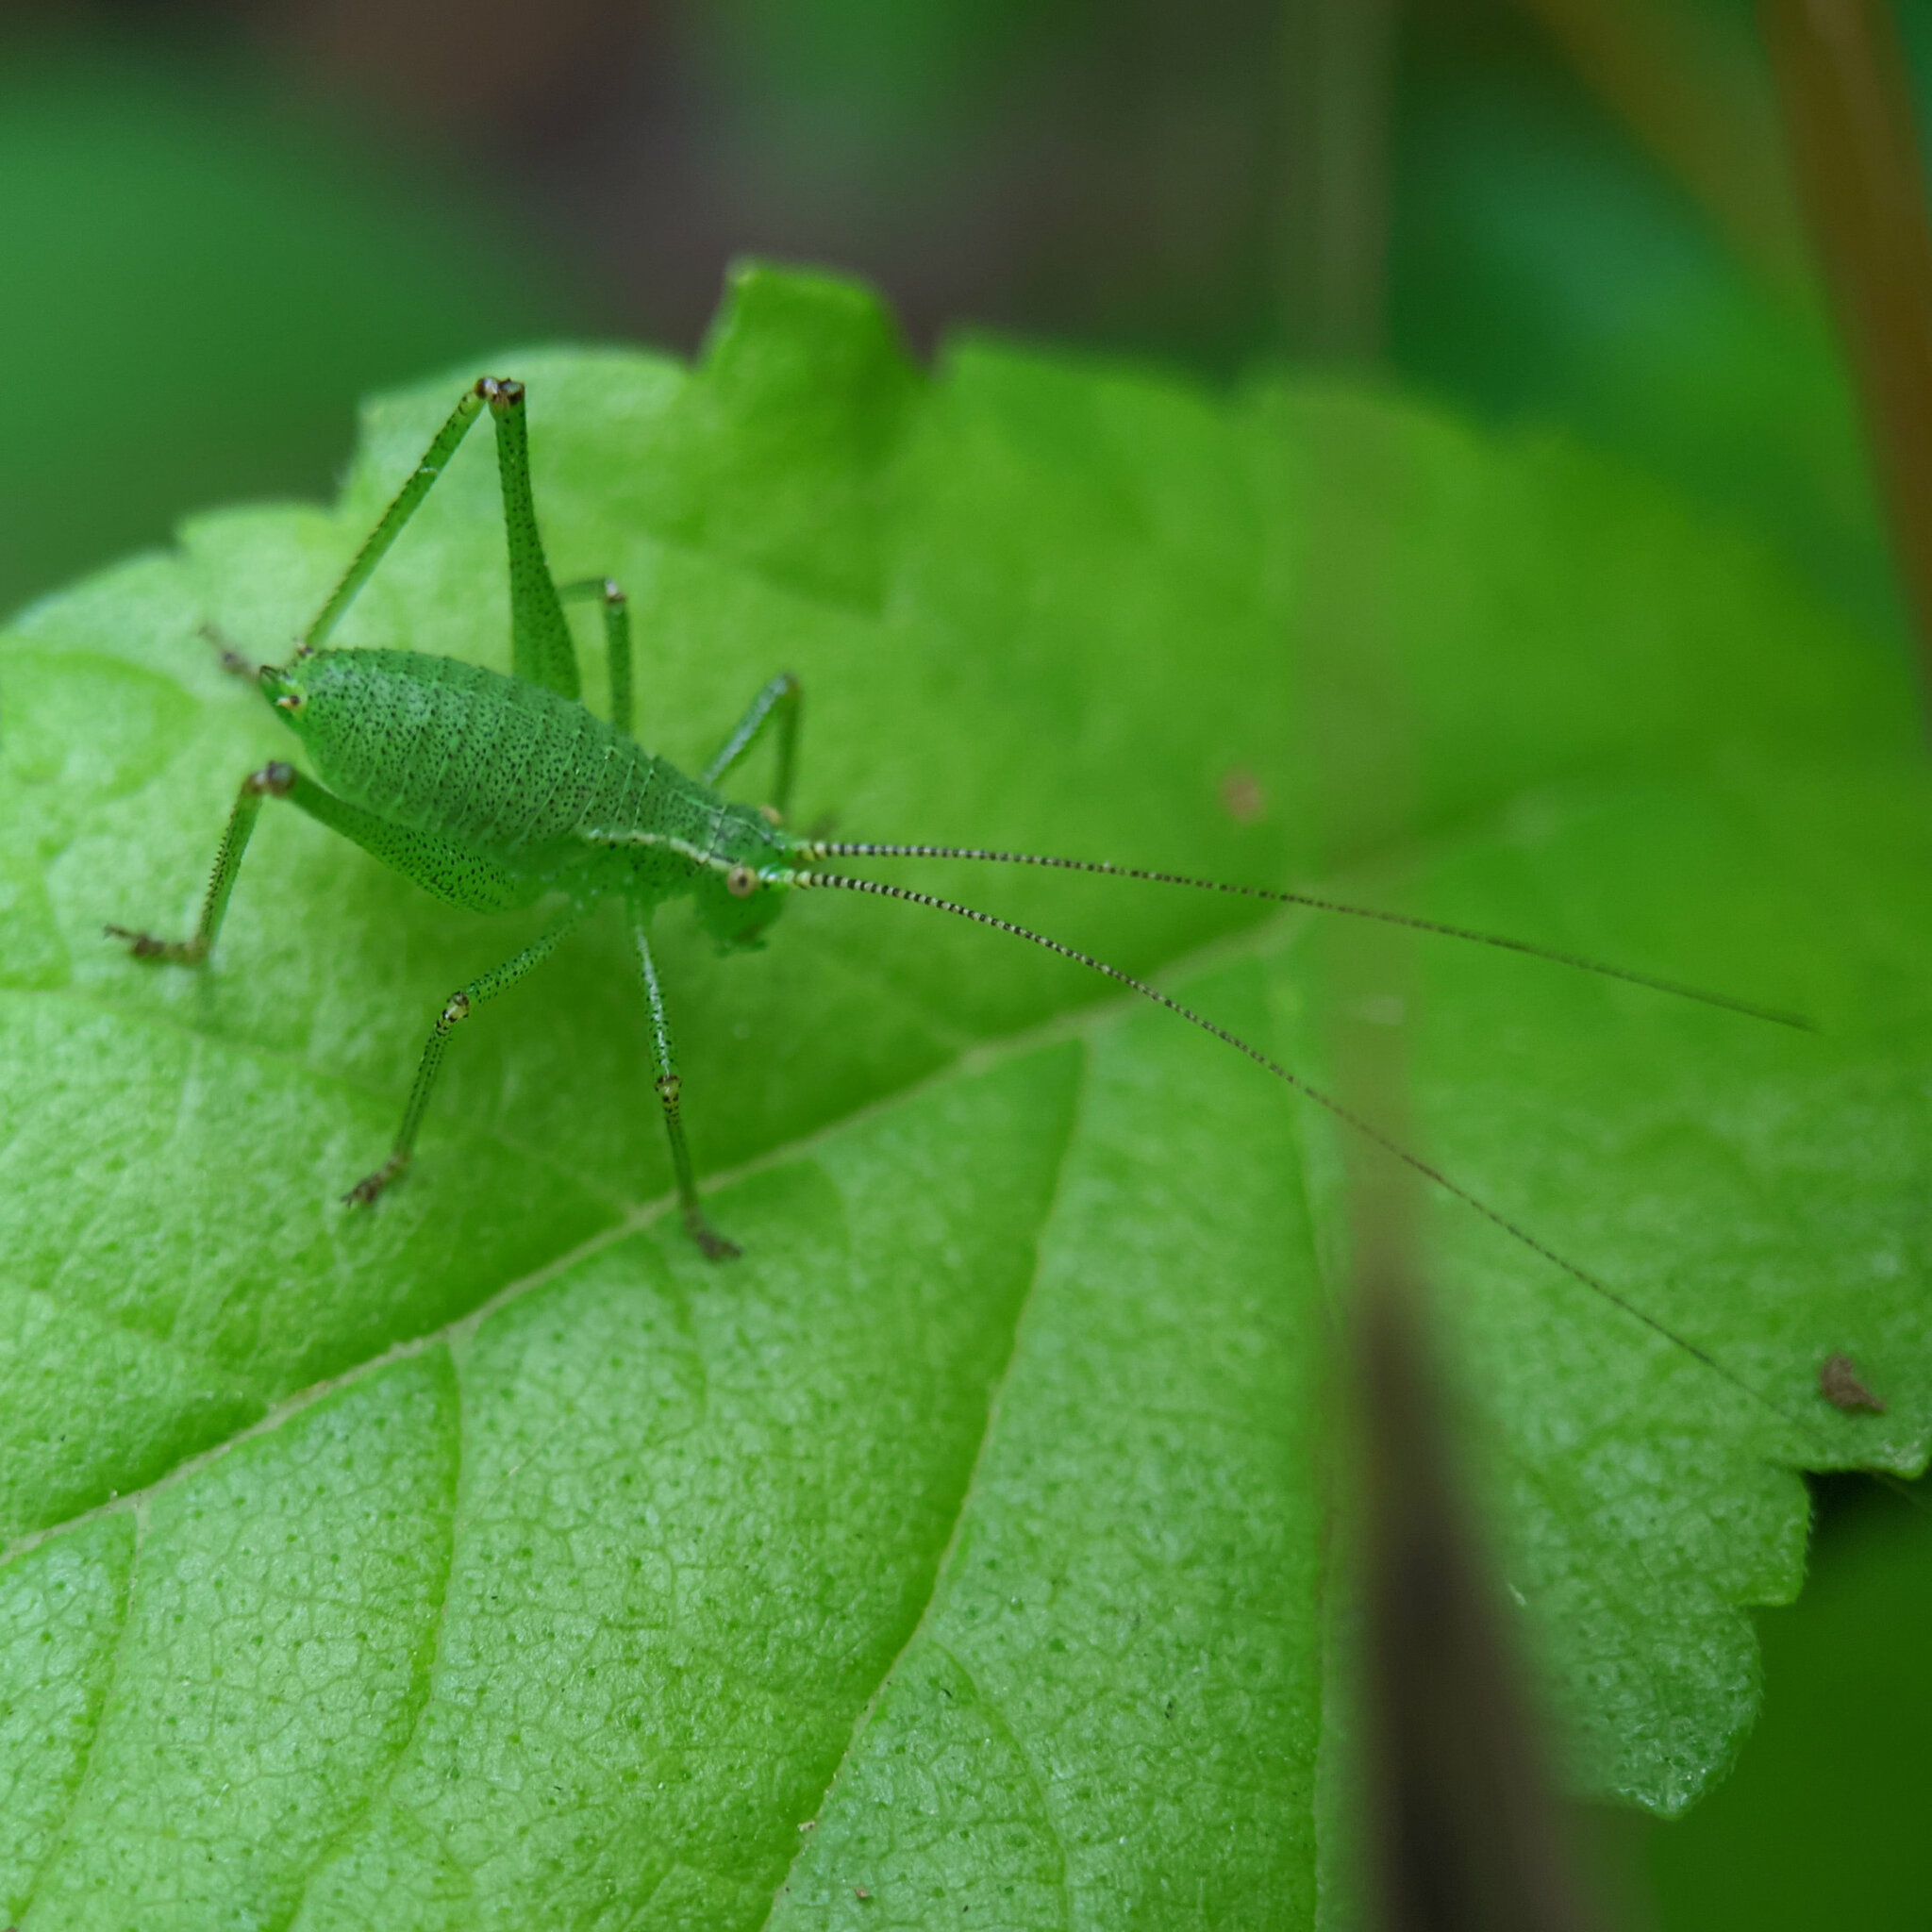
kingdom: Animalia
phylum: Arthropoda
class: Insecta
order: Orthoptera
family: Tettigoniidae
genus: Leptophyes
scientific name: Leptophyes punctatissima
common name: Speckled bush-cricket
